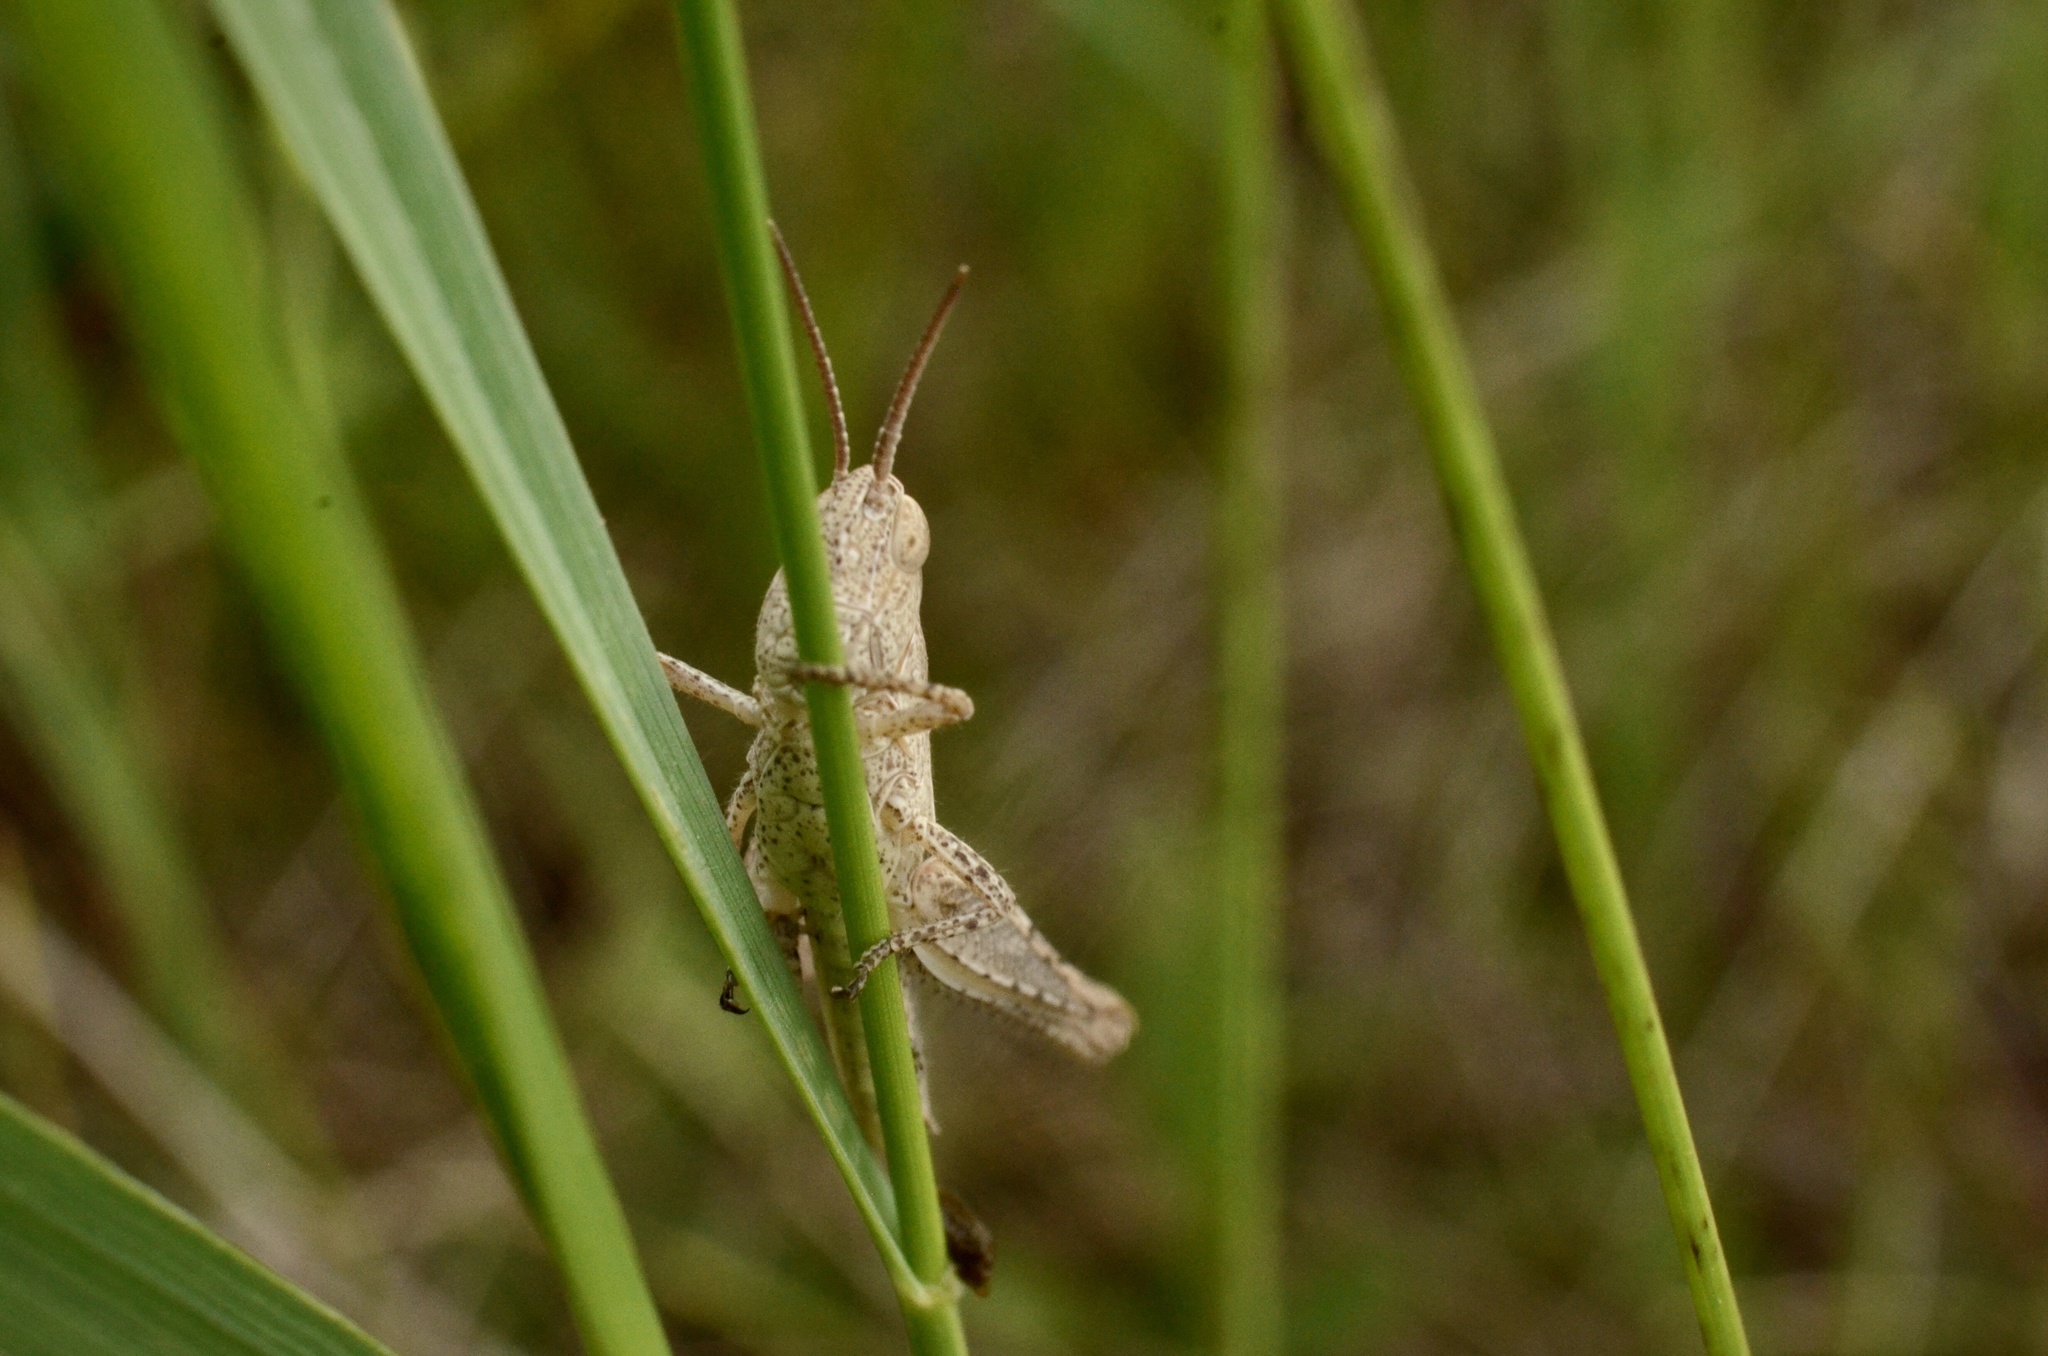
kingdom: Animalia
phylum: Arthropoda
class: Insecta
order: Orthoptera
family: Acrididae
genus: Glyptobothrus
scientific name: Glyptobothrus
